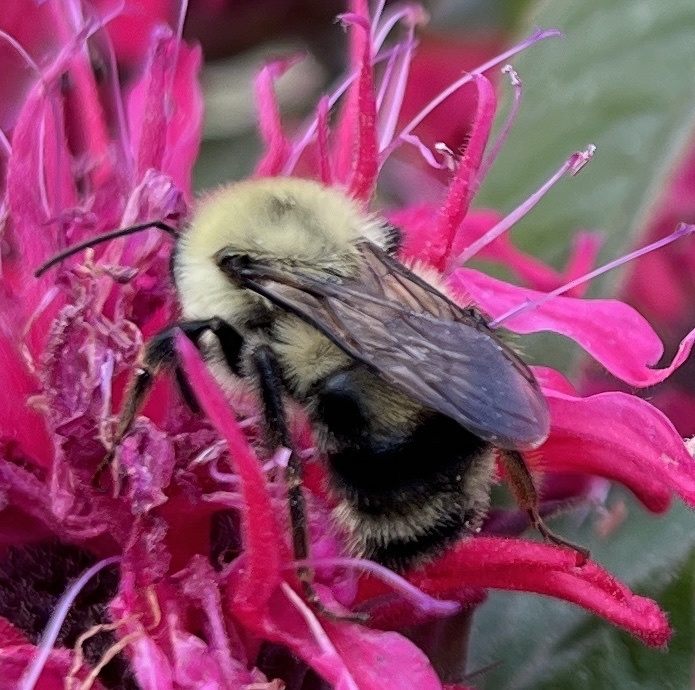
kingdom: Animalia
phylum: Arthropoda
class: Insecta
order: Hymenoptera
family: Apidae
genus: Bombus
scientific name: Bombus bimaculatus
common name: Two-spotted bumble bee
